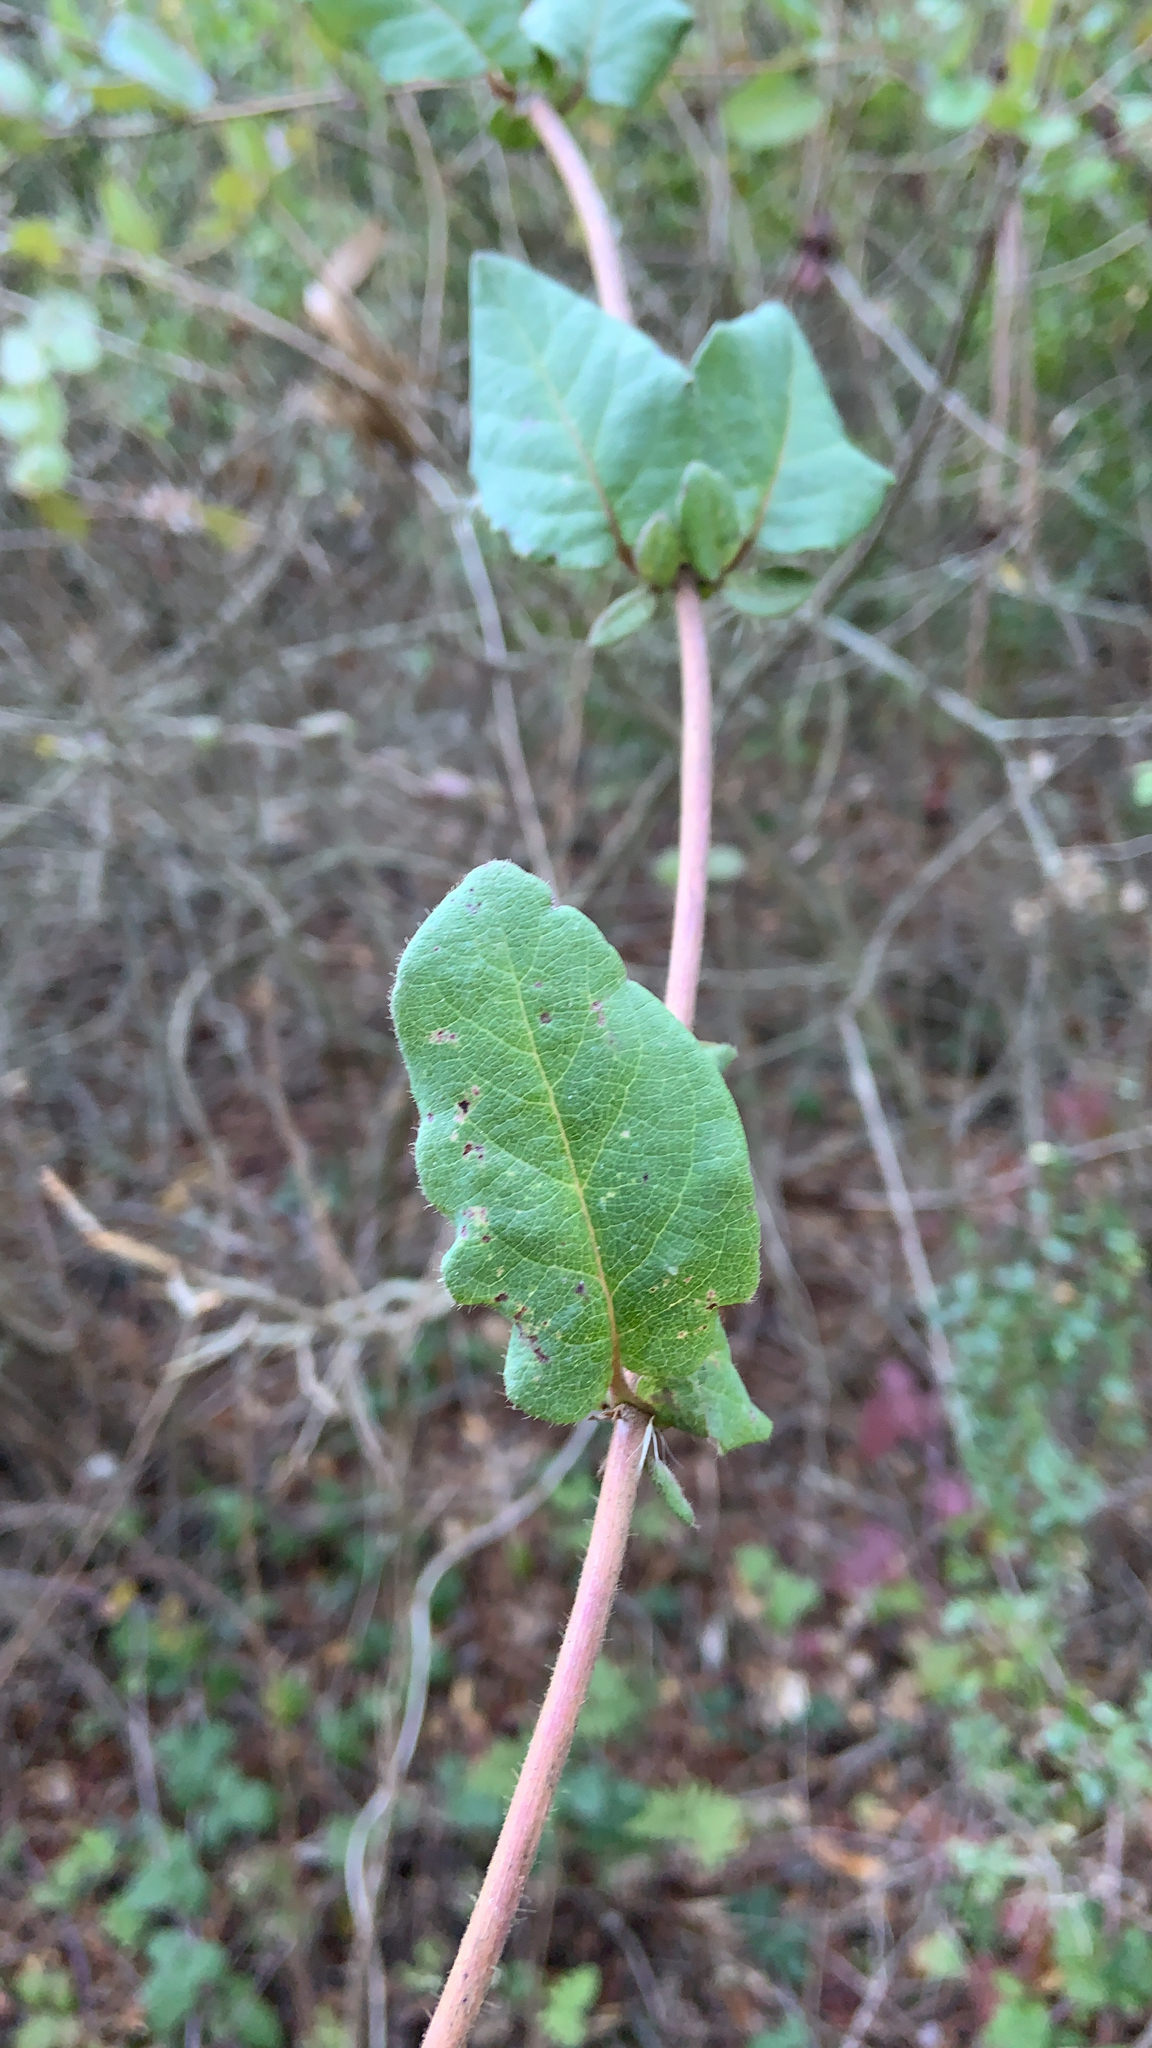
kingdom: Plantae
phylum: Tracheophyta
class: Magnoliopsida
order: Dipsacales
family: Caprifoliaceae
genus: Lonicera
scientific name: Lonicera hispidula
